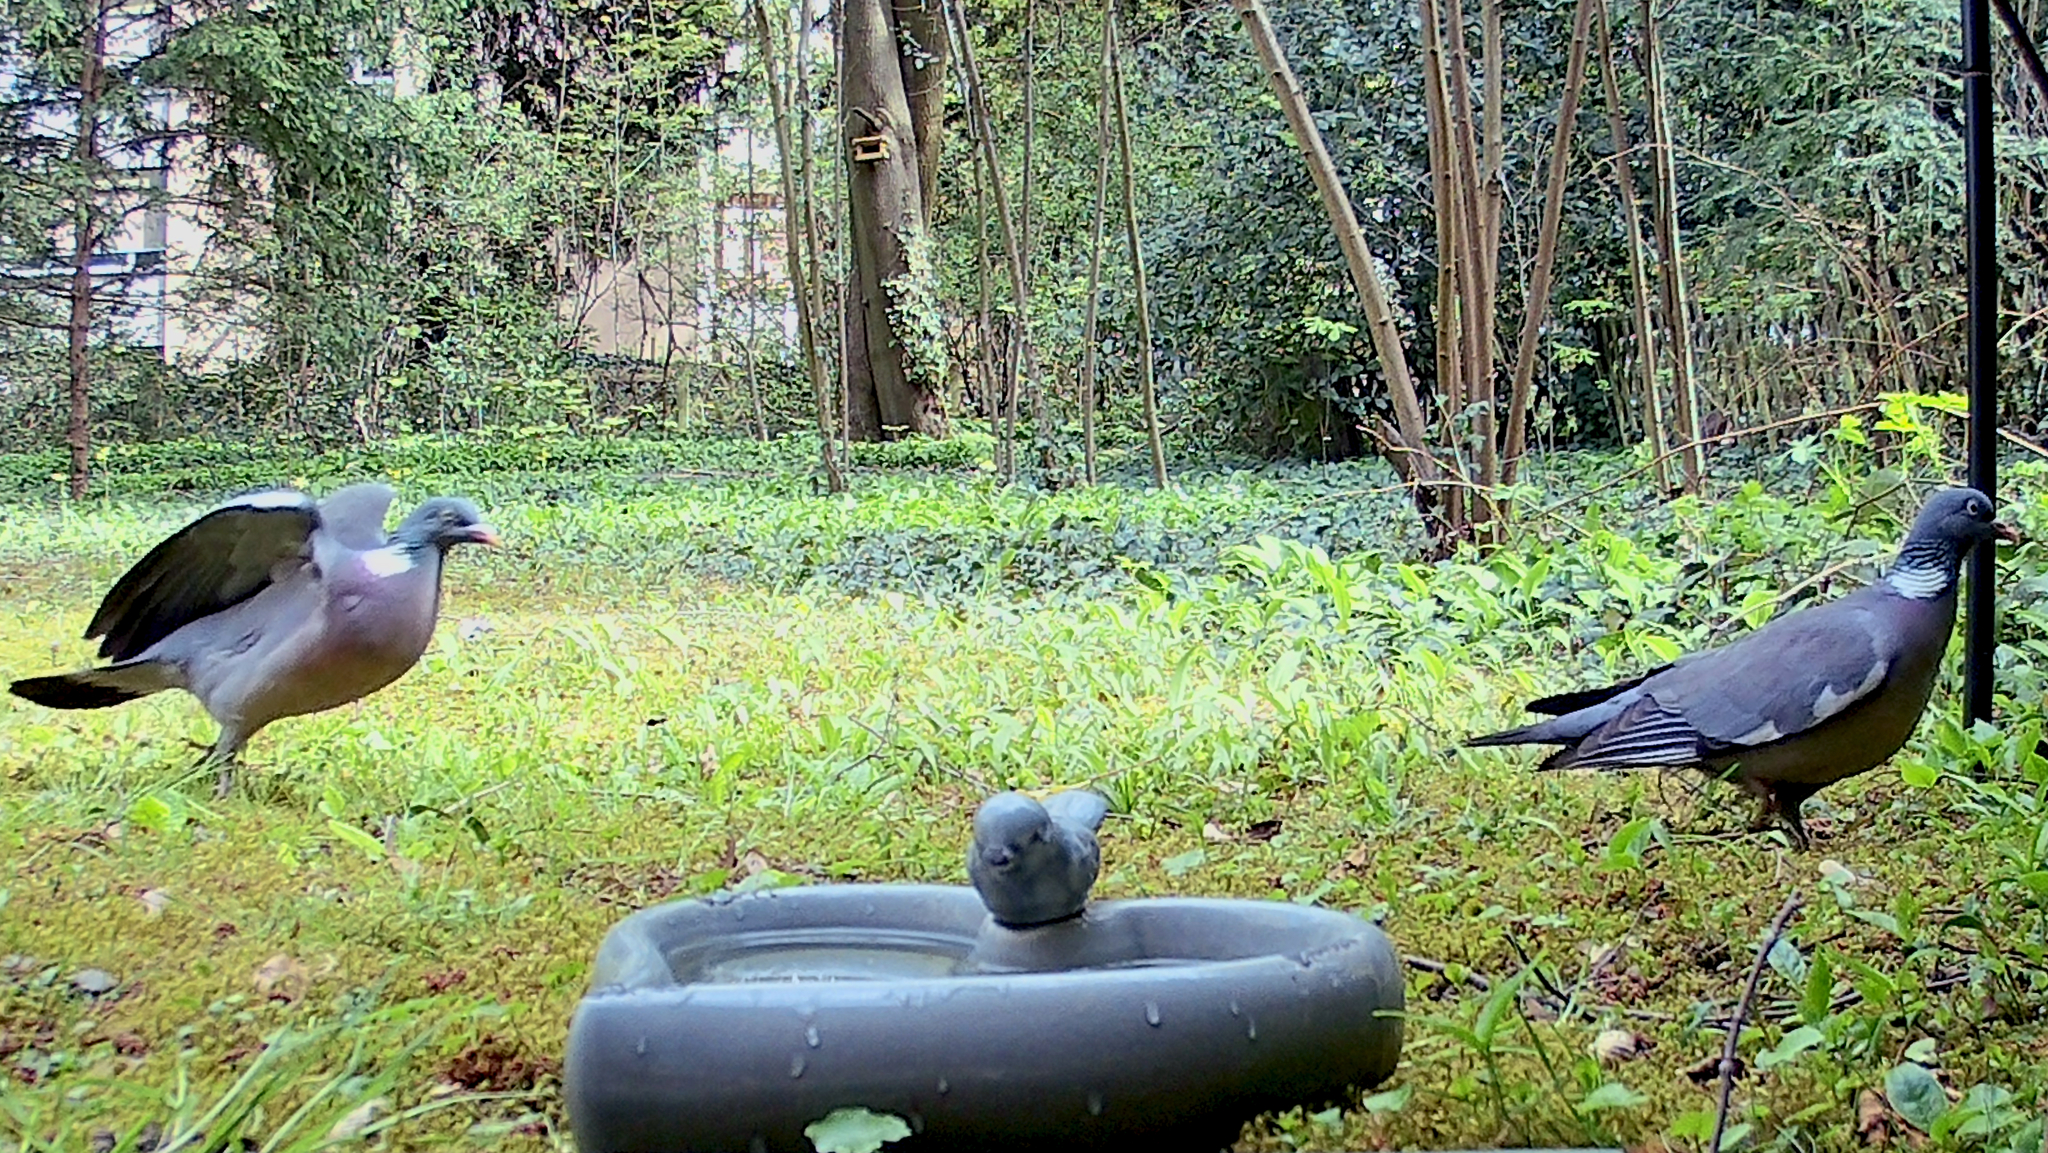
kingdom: Animalia
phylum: Chordata
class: Aves
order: Columbiformes
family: Columbidae
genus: Columba
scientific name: Columba palumbus
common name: Common wood pigeon
